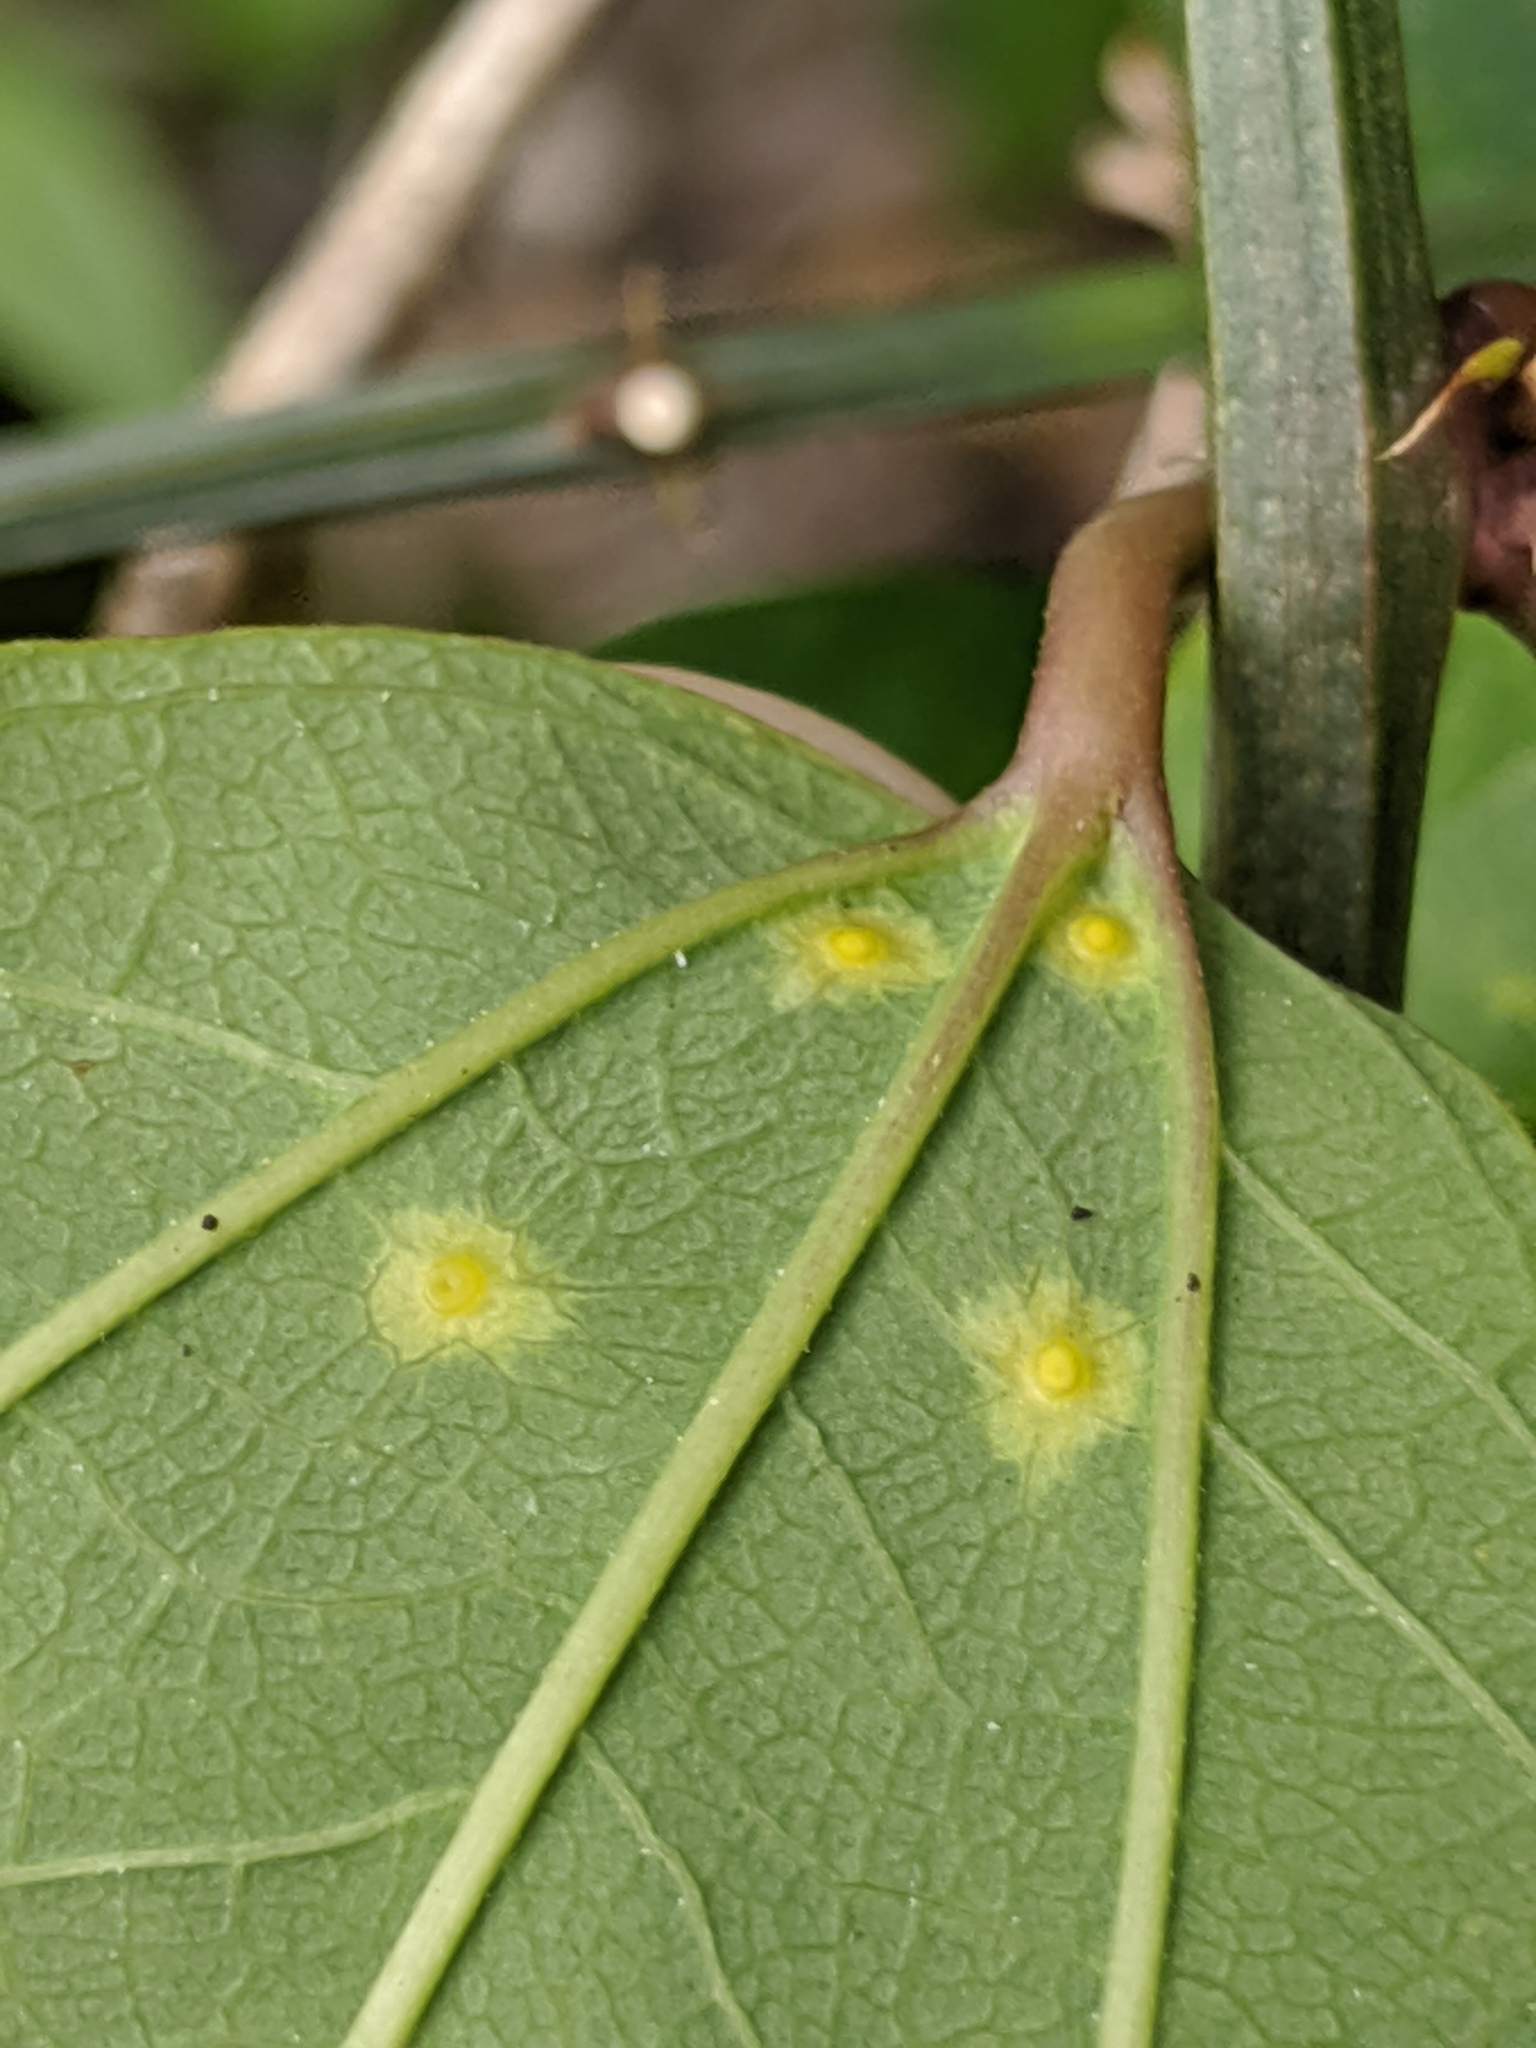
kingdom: Plantae
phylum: Tracheophyta
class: Magnoliopsida
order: Malpighiales
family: Passifloraceae
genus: Passiflora
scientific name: Passiflora biflora
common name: Twoflower passionflower
